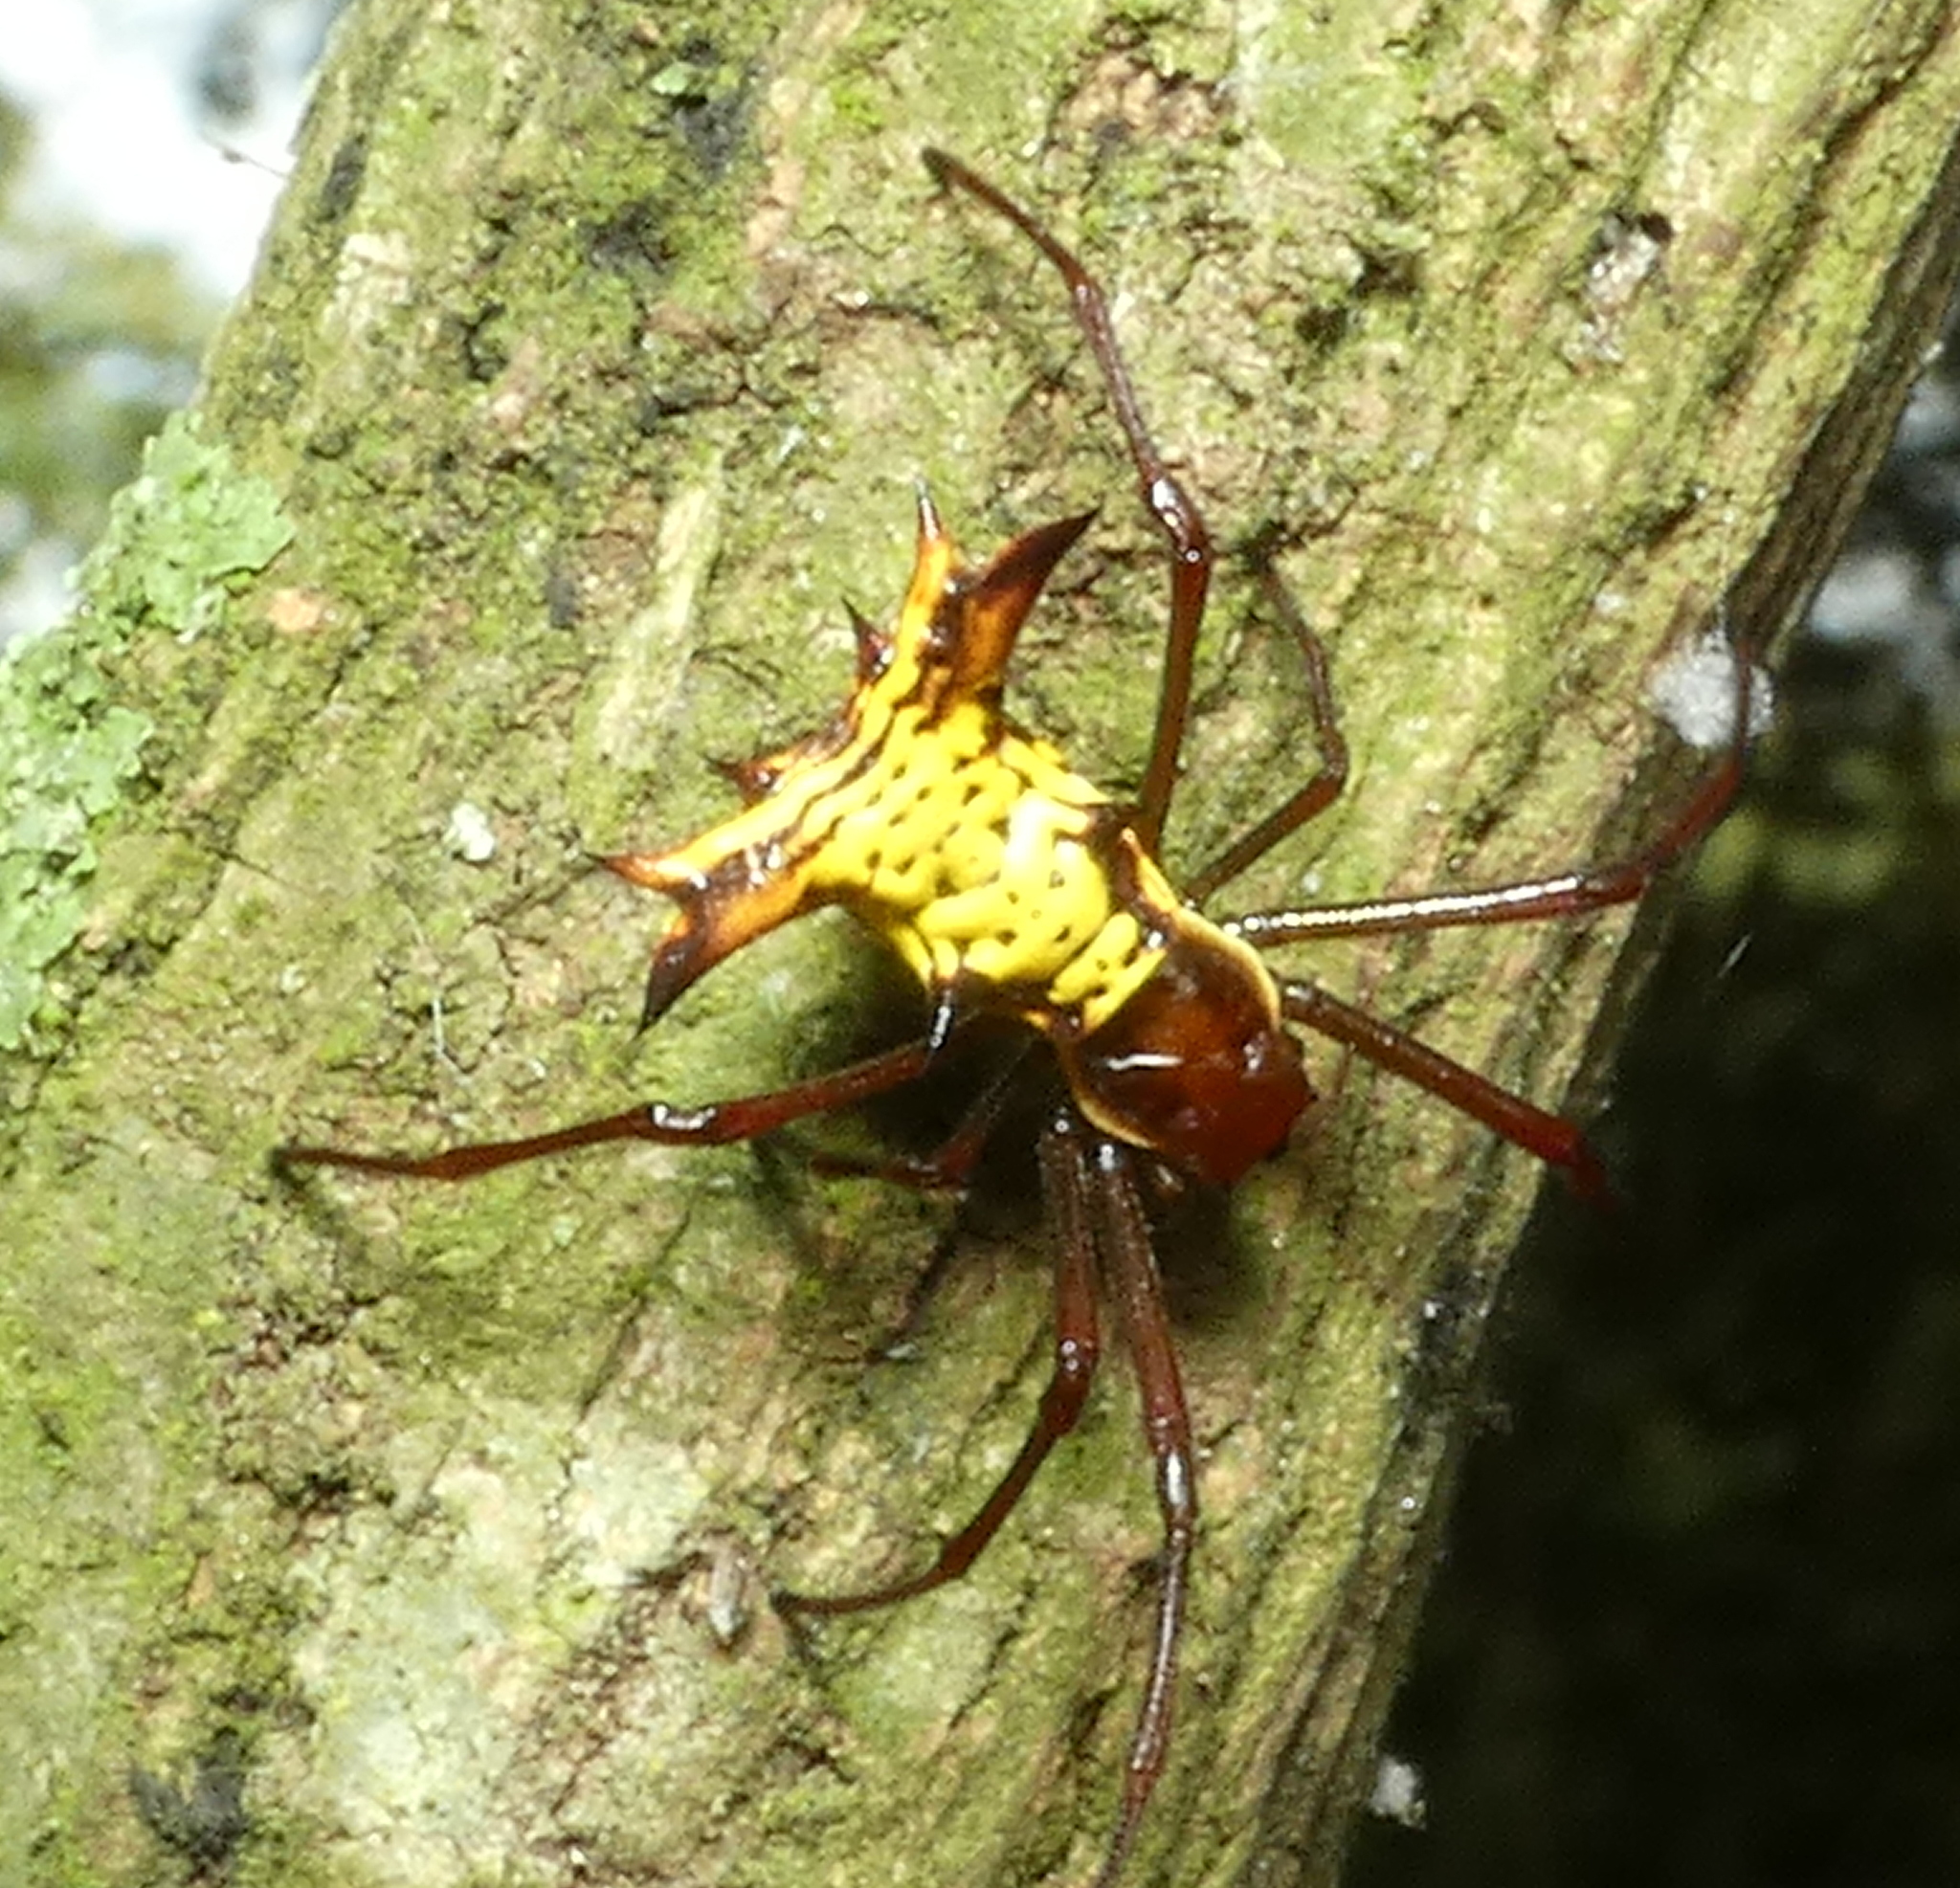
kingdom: Animalia
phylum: Arthropoda
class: Arachnida
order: Araneae
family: Araneidae
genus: Micrathena
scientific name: Micrathena fissispina
